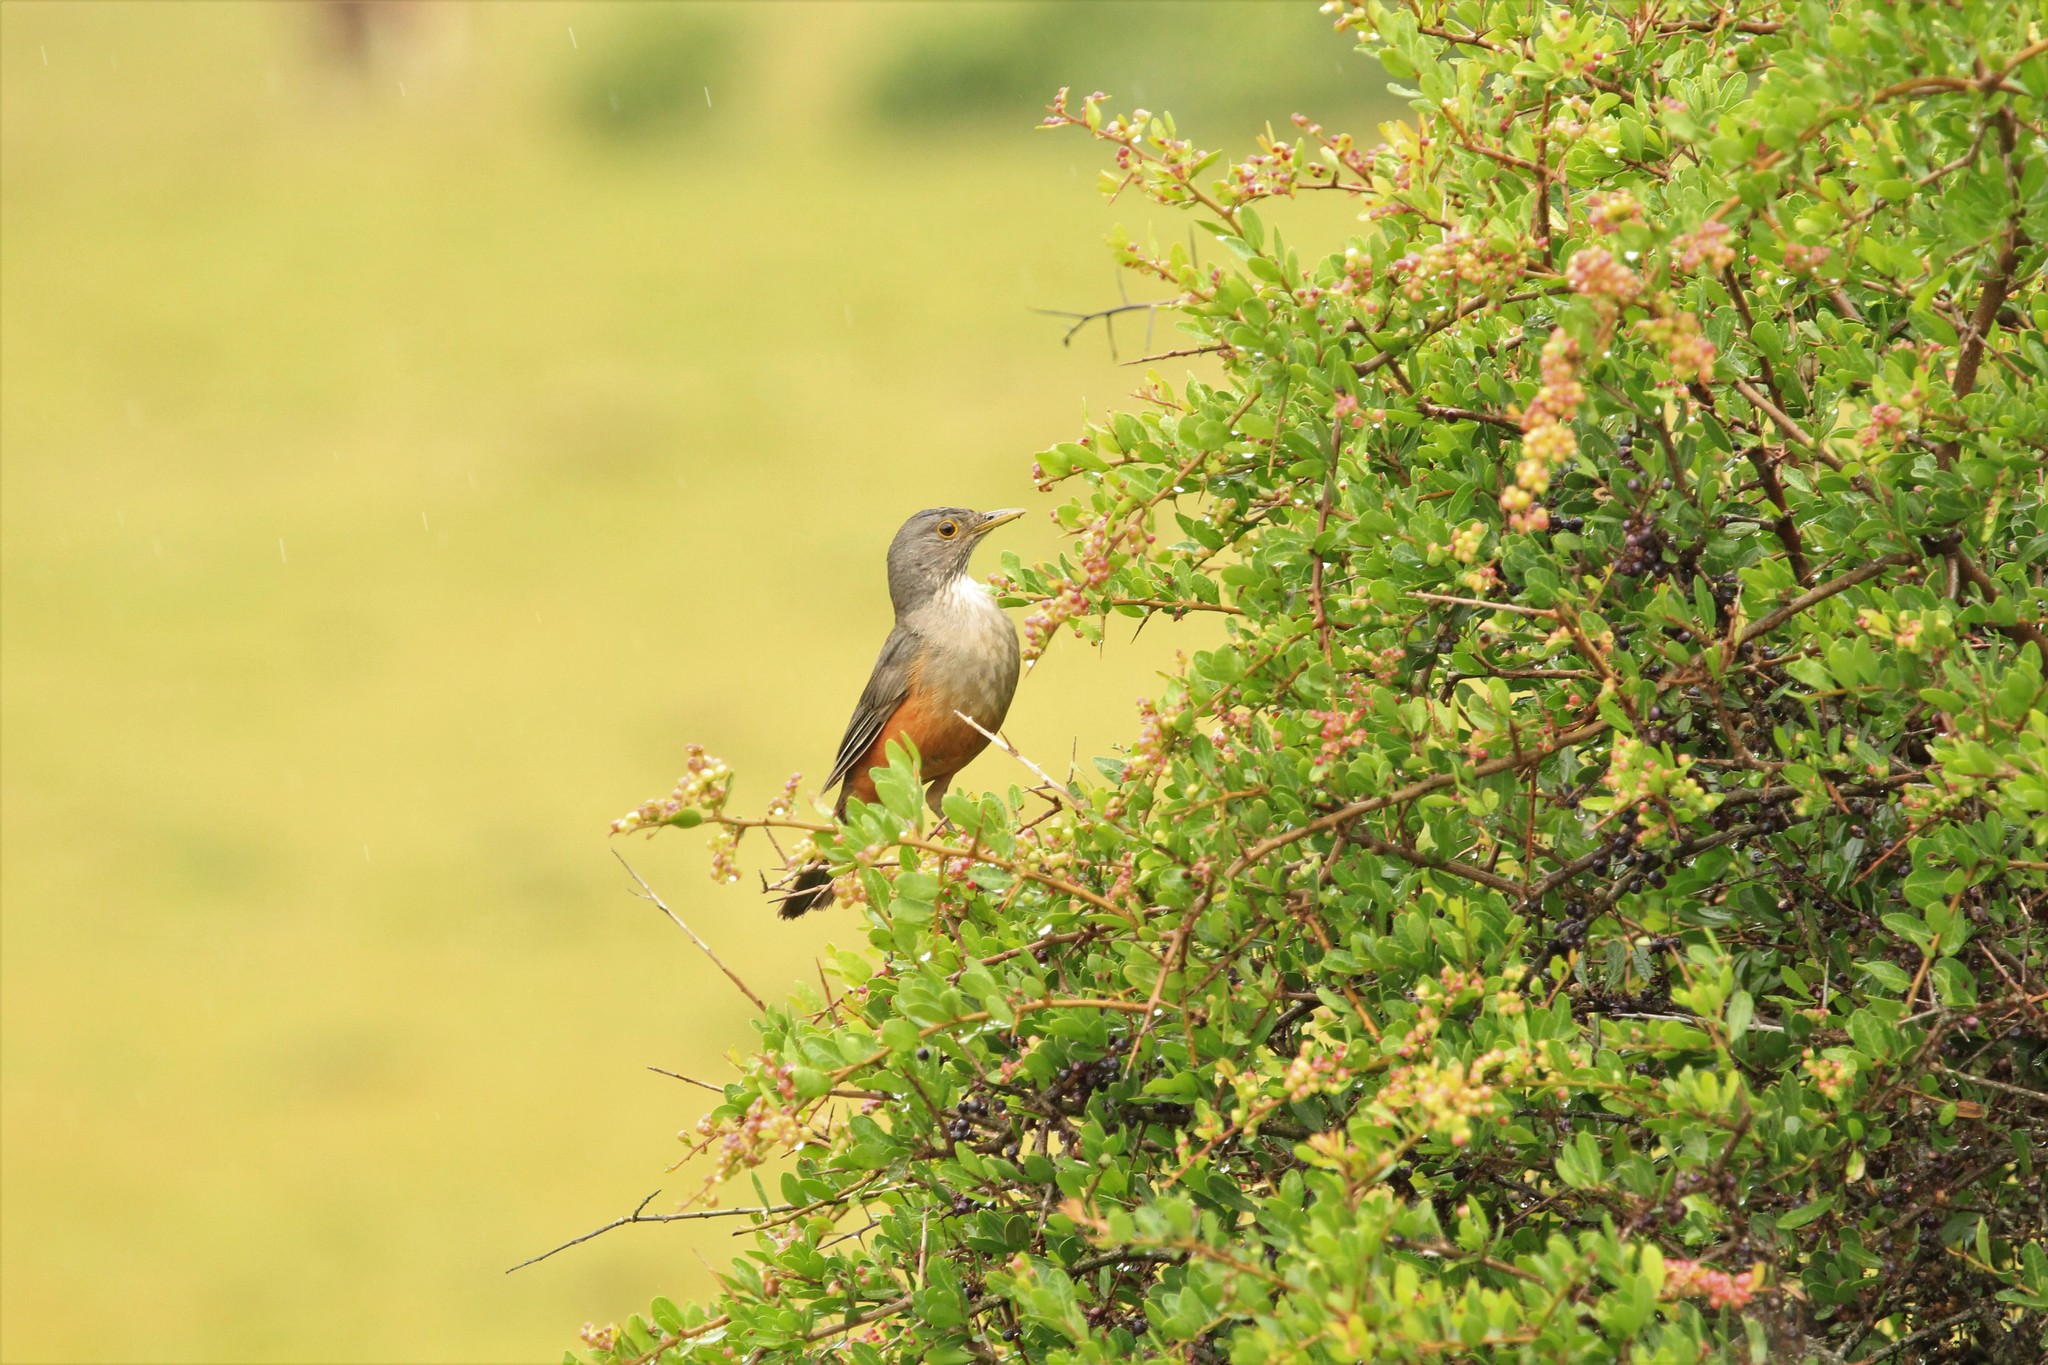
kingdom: Animalia
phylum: Chordata
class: Aves
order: Passeriformes
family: Turdidae
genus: Turdus
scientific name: Turdus rufiventris
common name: Rufous-bellied thrush
